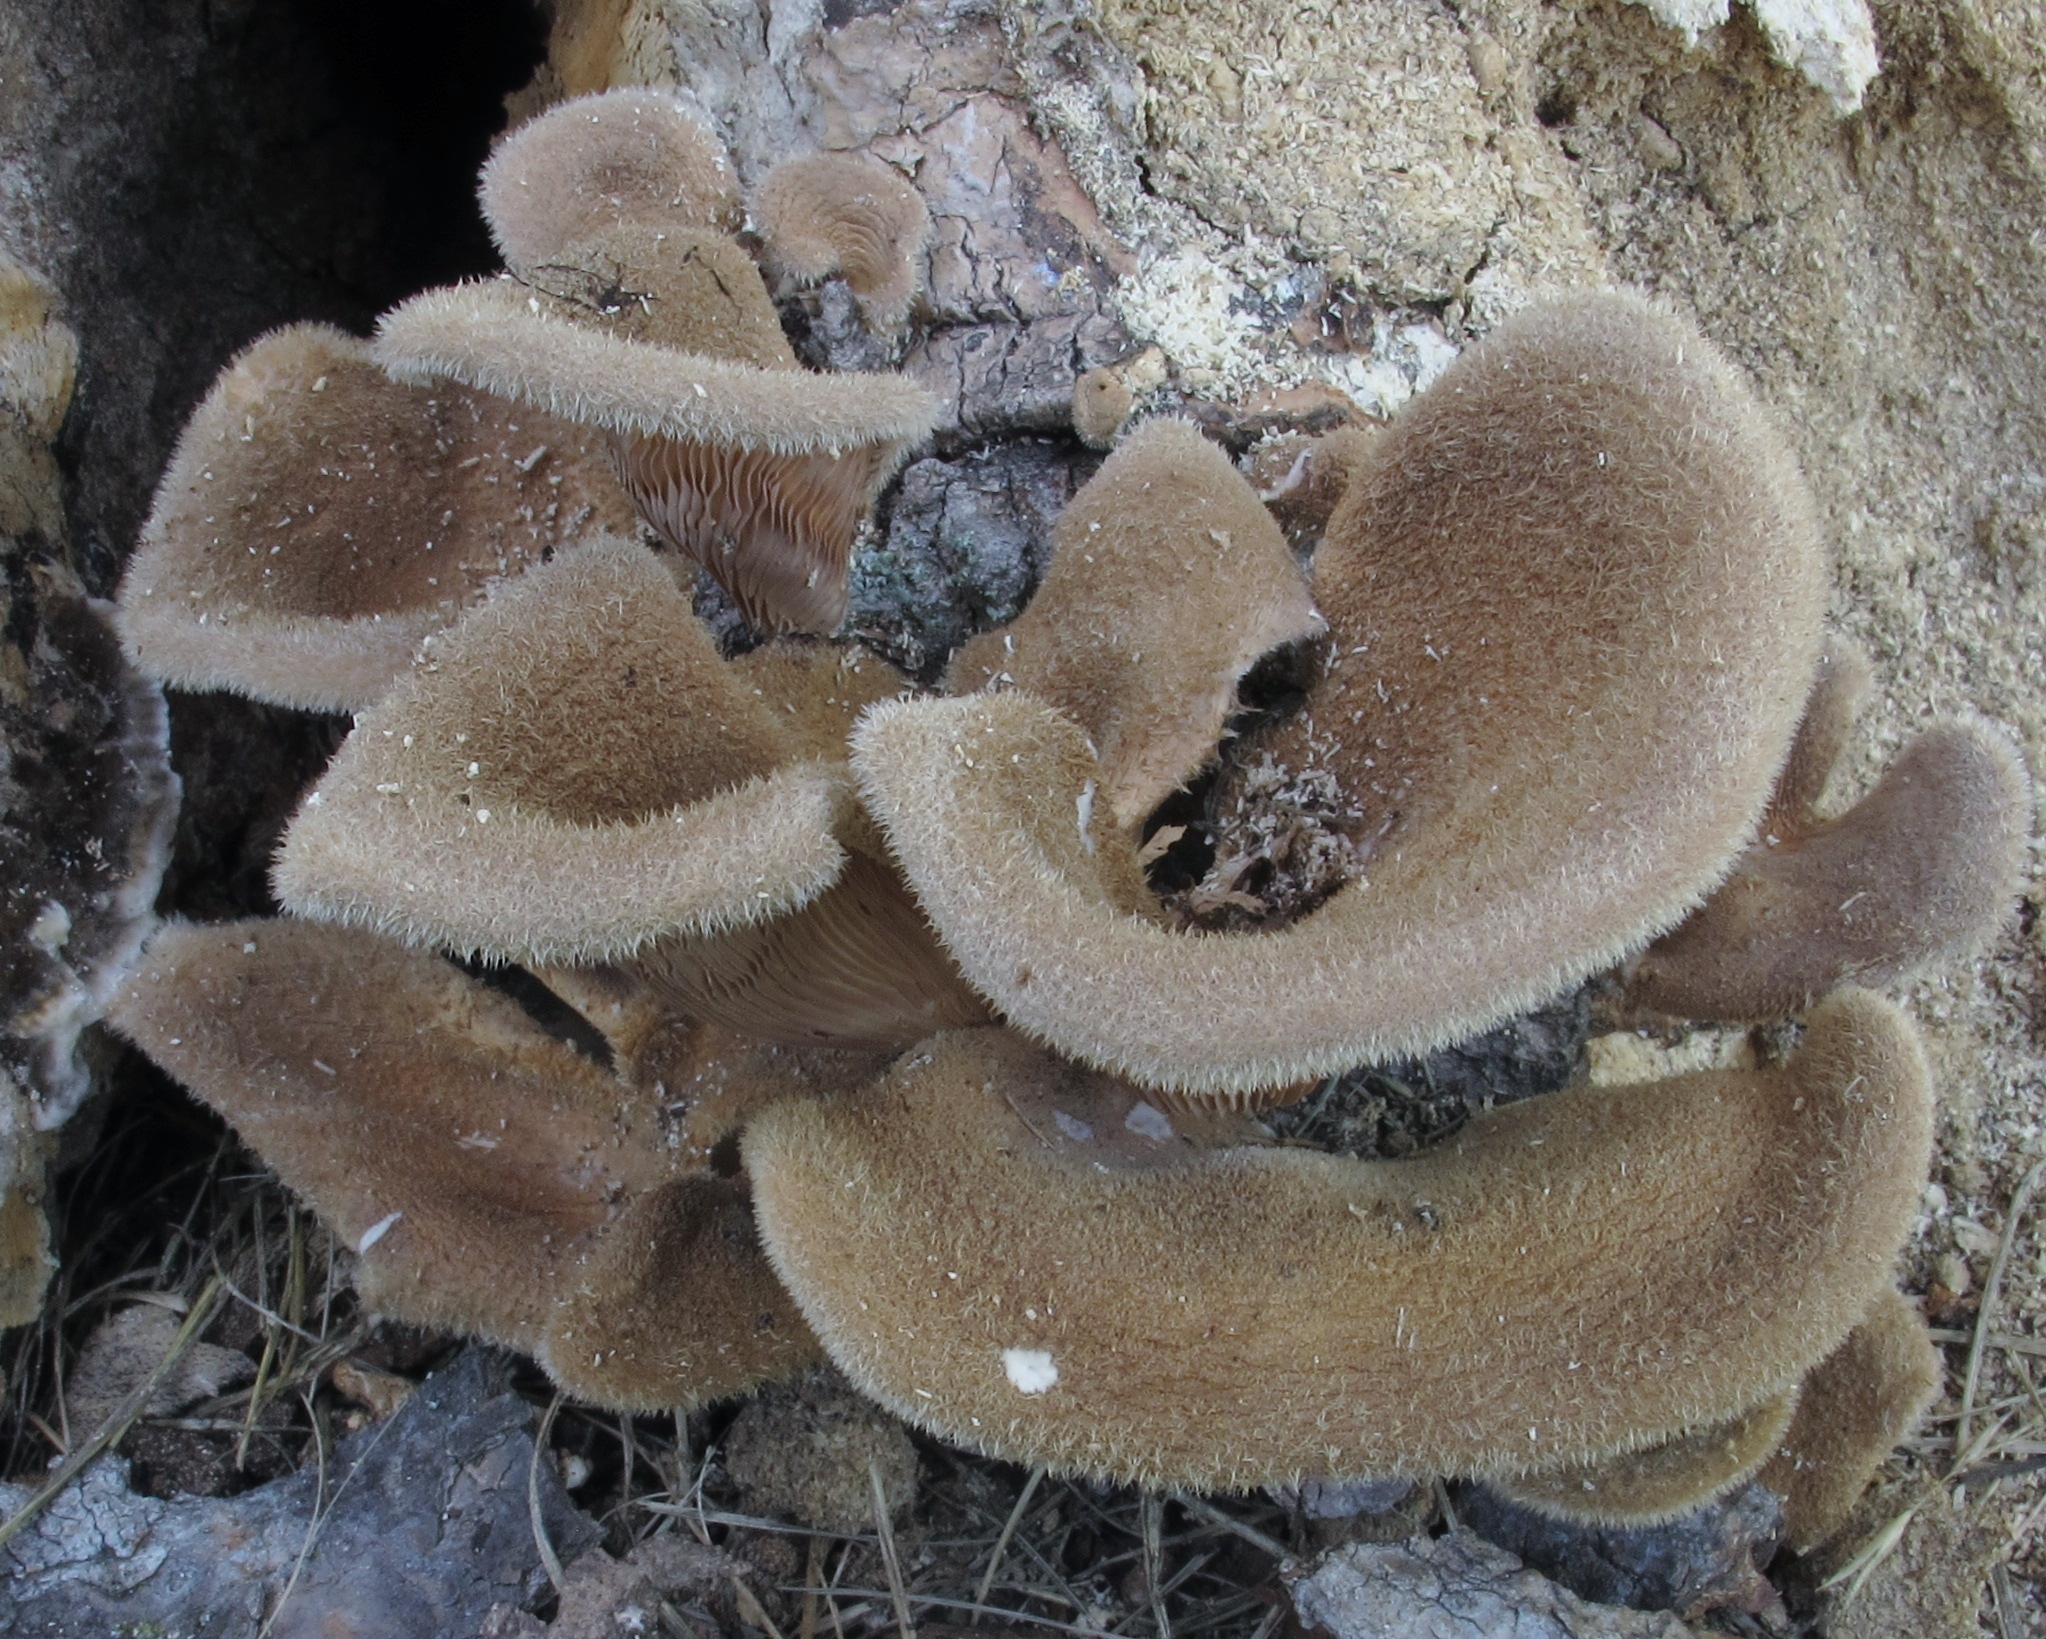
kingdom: Fungi
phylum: Basidiomycota
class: Agaricomycetes
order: Polyporales
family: Panaceae
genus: Panus
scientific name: Panus neostrigosus
